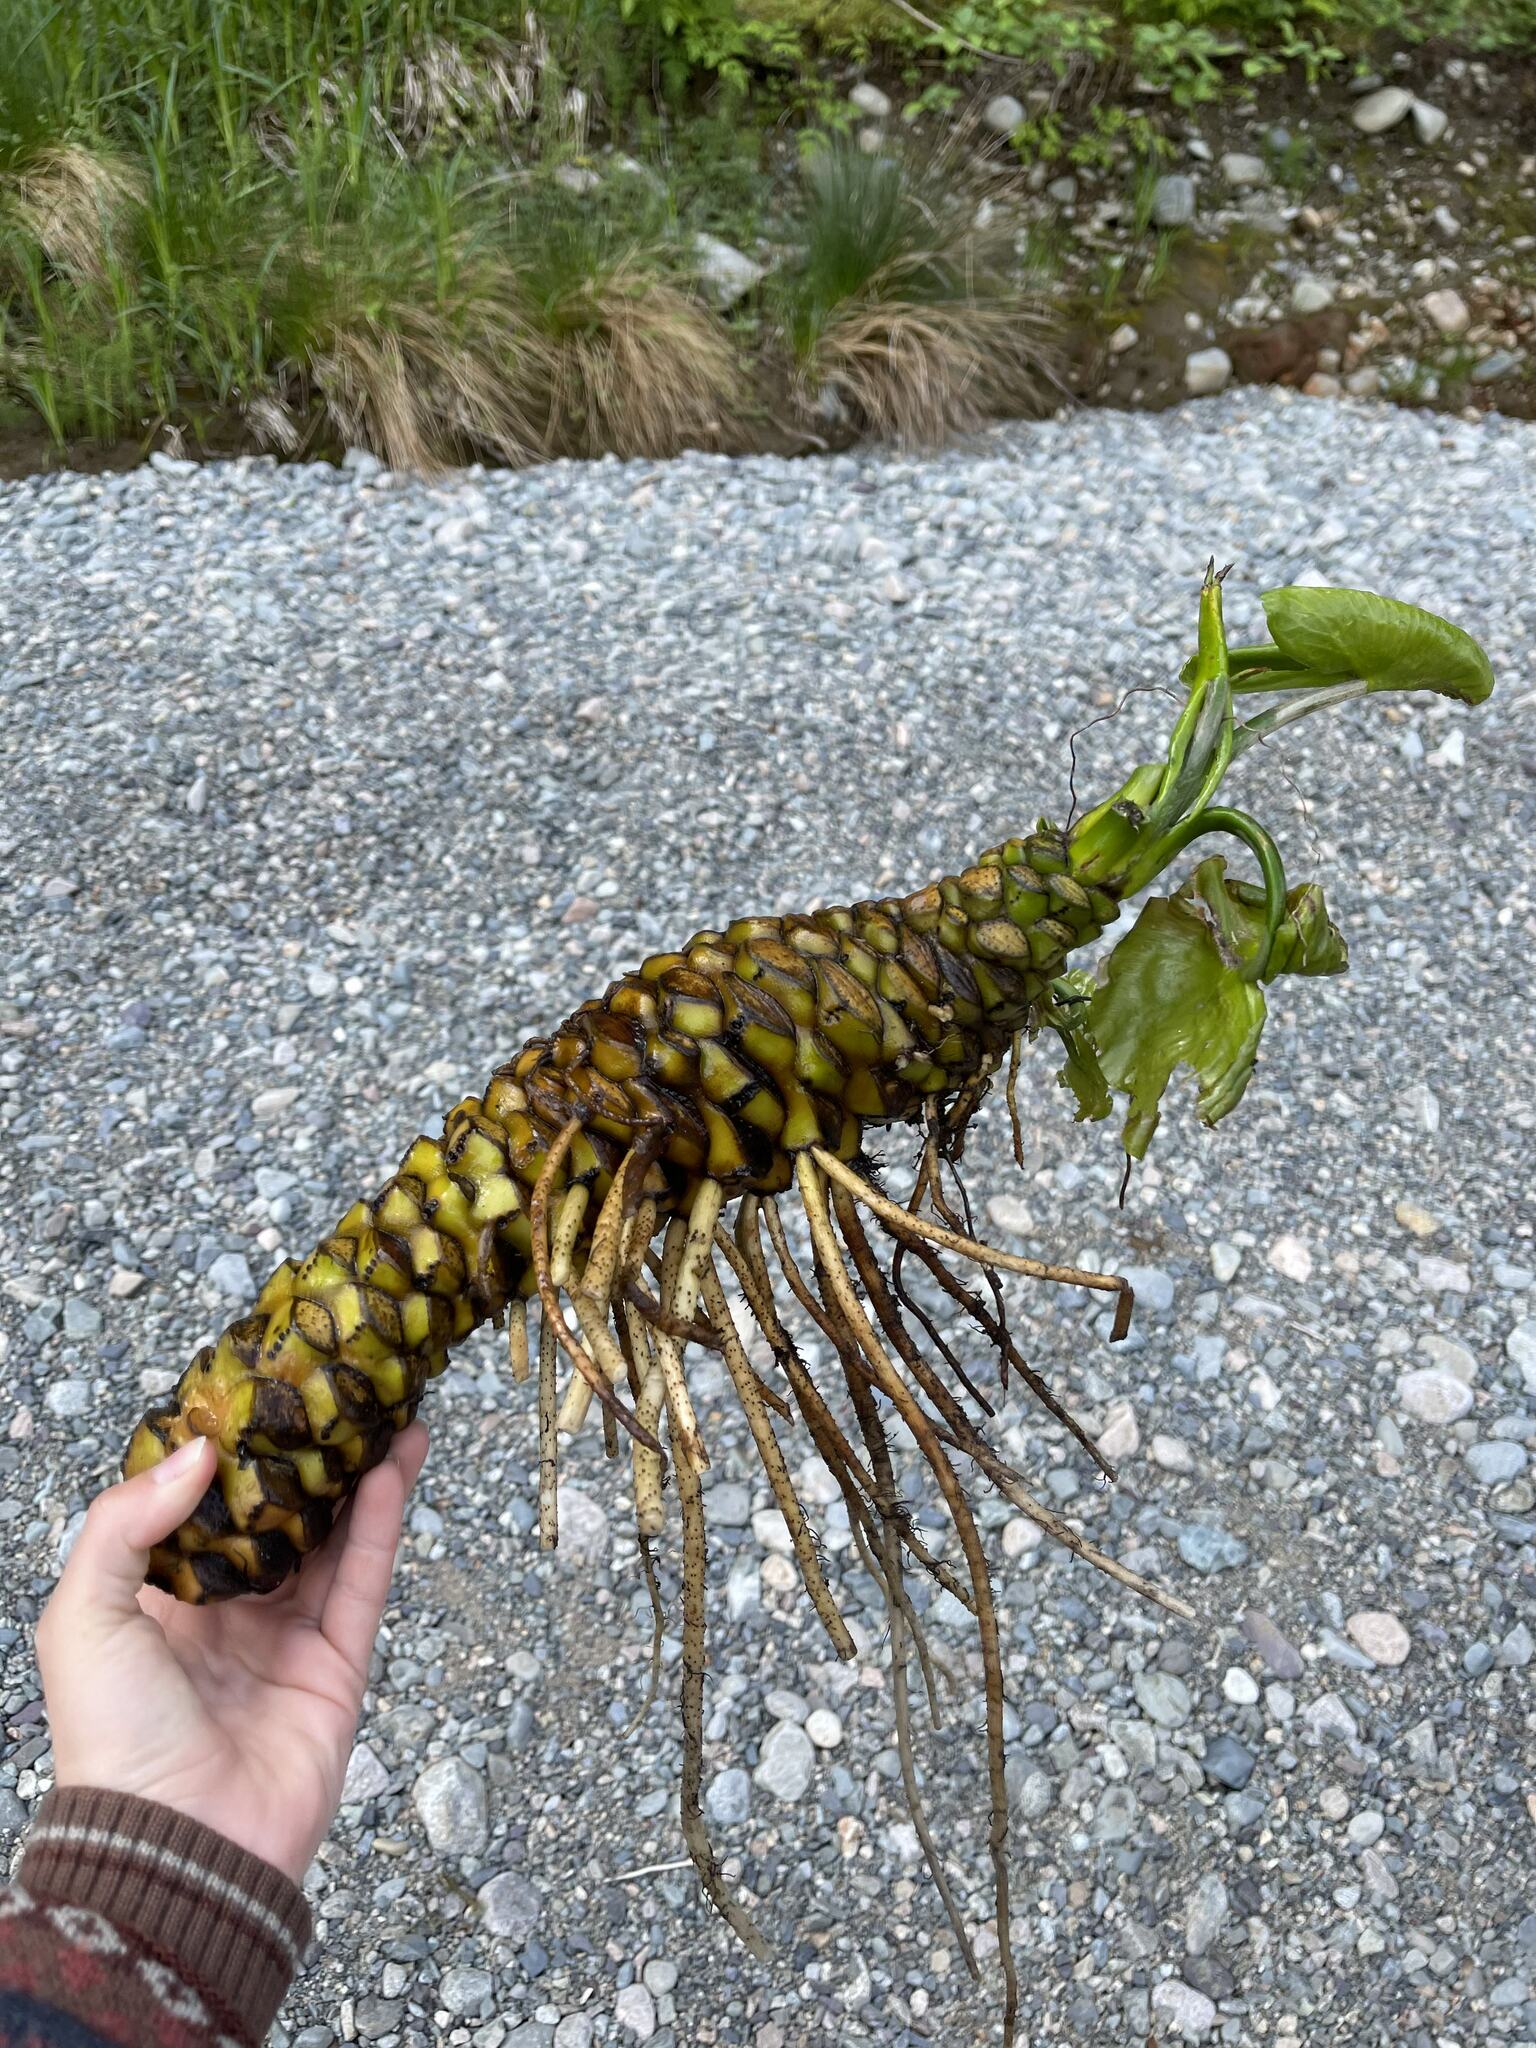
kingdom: Plantae
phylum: Tracheophyta
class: Magnoliopsida
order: Nymphaeales
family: Nymphaeaceae
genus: Nuphar
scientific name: Nuphar polysepala
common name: Rocky mountain cow-lily
